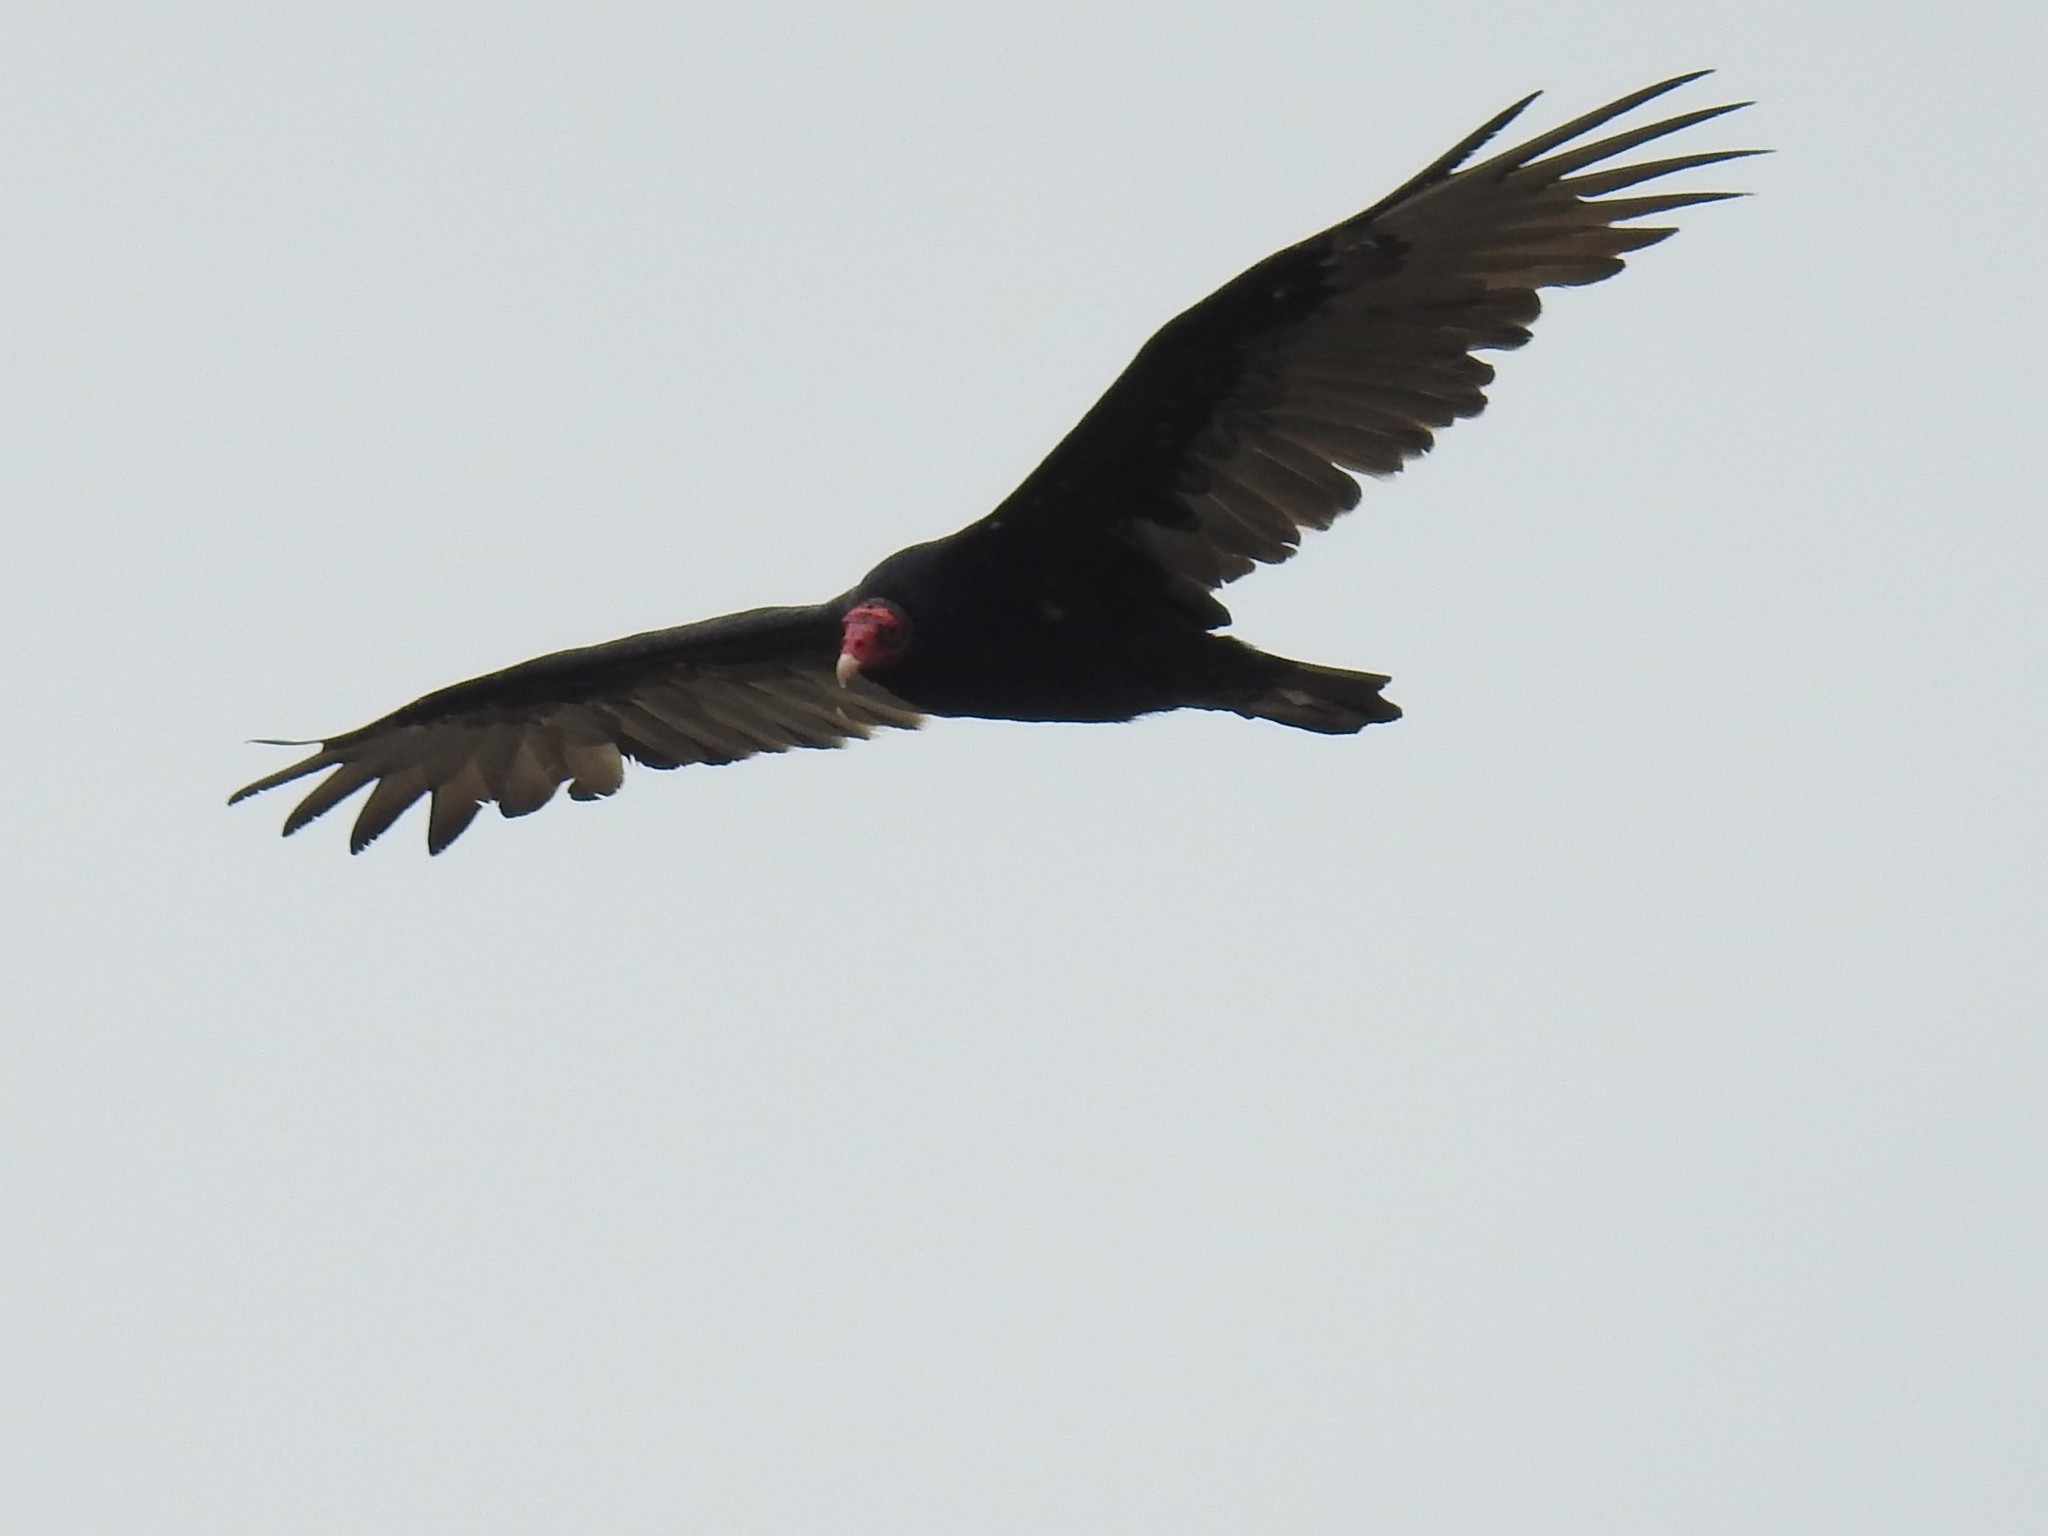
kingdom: Animalia
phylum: Chordata
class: Aves
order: Accipitriformes
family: Cathartidae
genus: Cathartes
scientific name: Cathartes aura
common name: Turkey vulture
